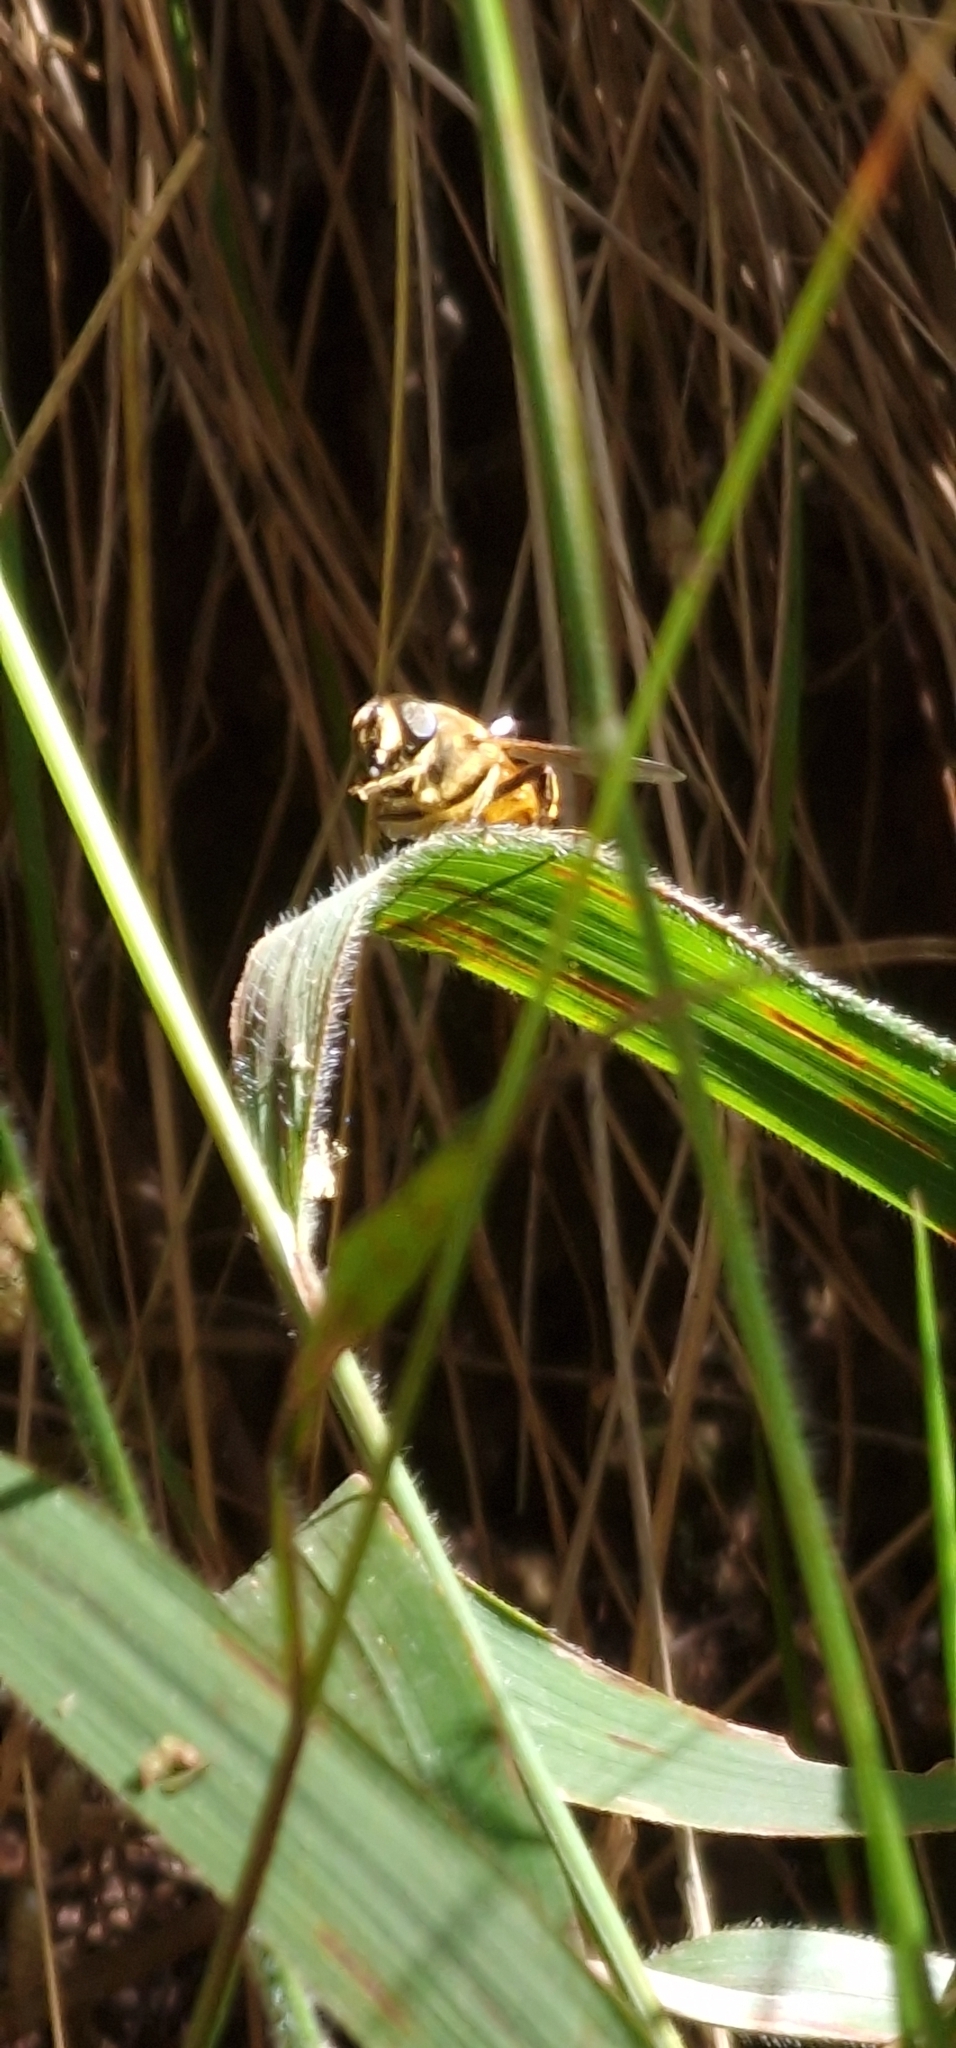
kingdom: Animalia
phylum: Arthropoda
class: Insecta
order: Diptera
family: Syrphidae
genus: Eristalis
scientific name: Eristalis tenax
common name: Drone fly
